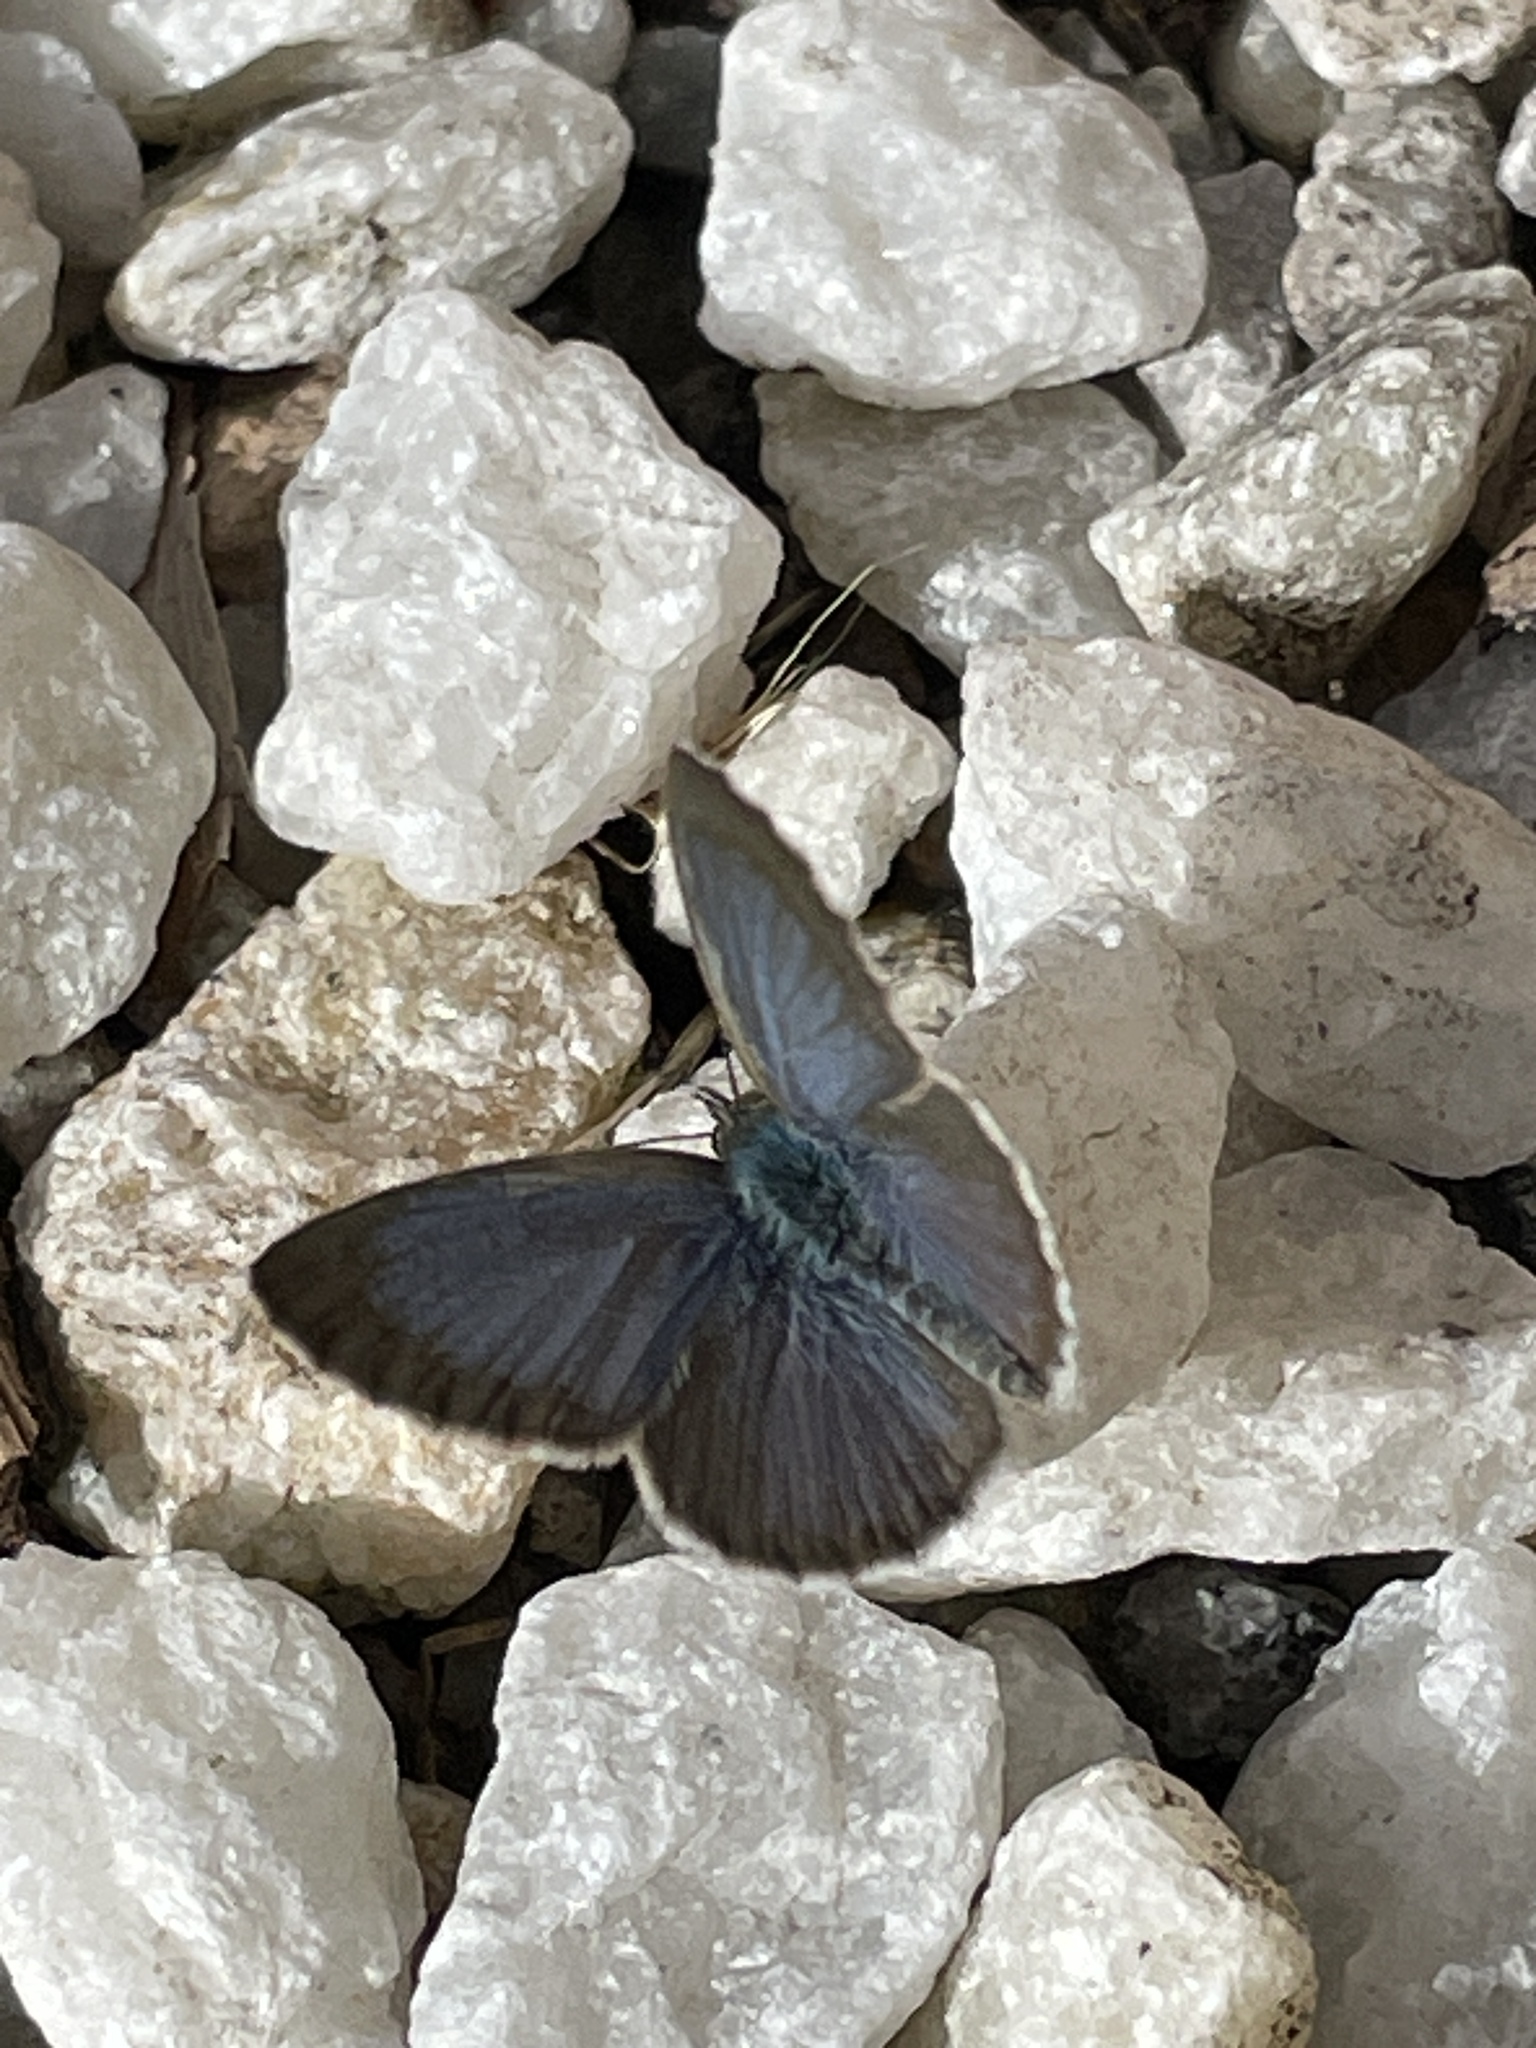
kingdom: Animalia
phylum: Arthropoda
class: Insecta
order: Lepidoptera
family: Lycaenidae
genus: Zizina
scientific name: Zizina otis
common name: Lesser grass blue
